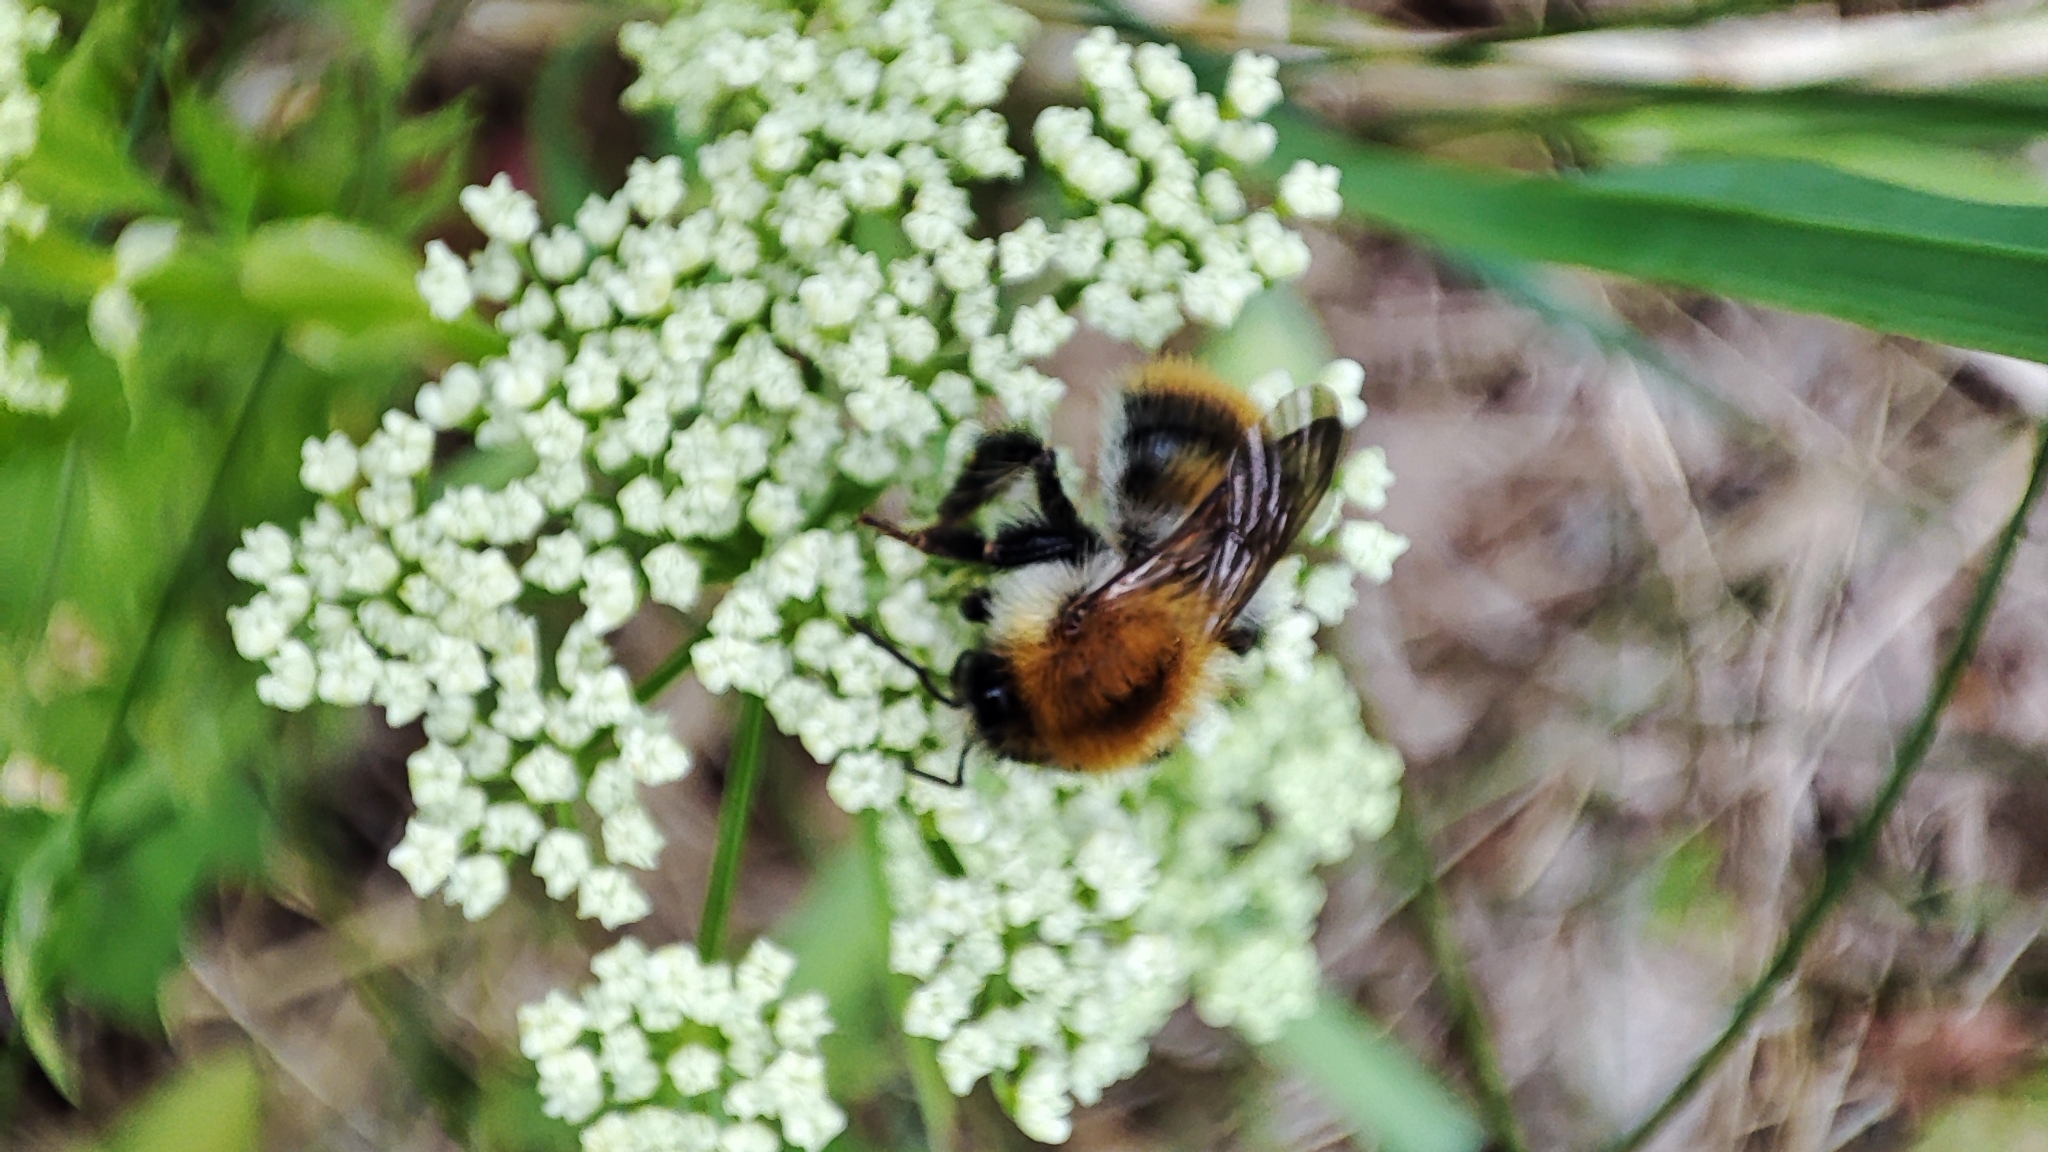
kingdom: Animalia
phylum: Arthropoda
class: Insecta
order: Hymenoptera
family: Apidae
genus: Bombus
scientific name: Bombus pascuorum
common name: Common carder bee
